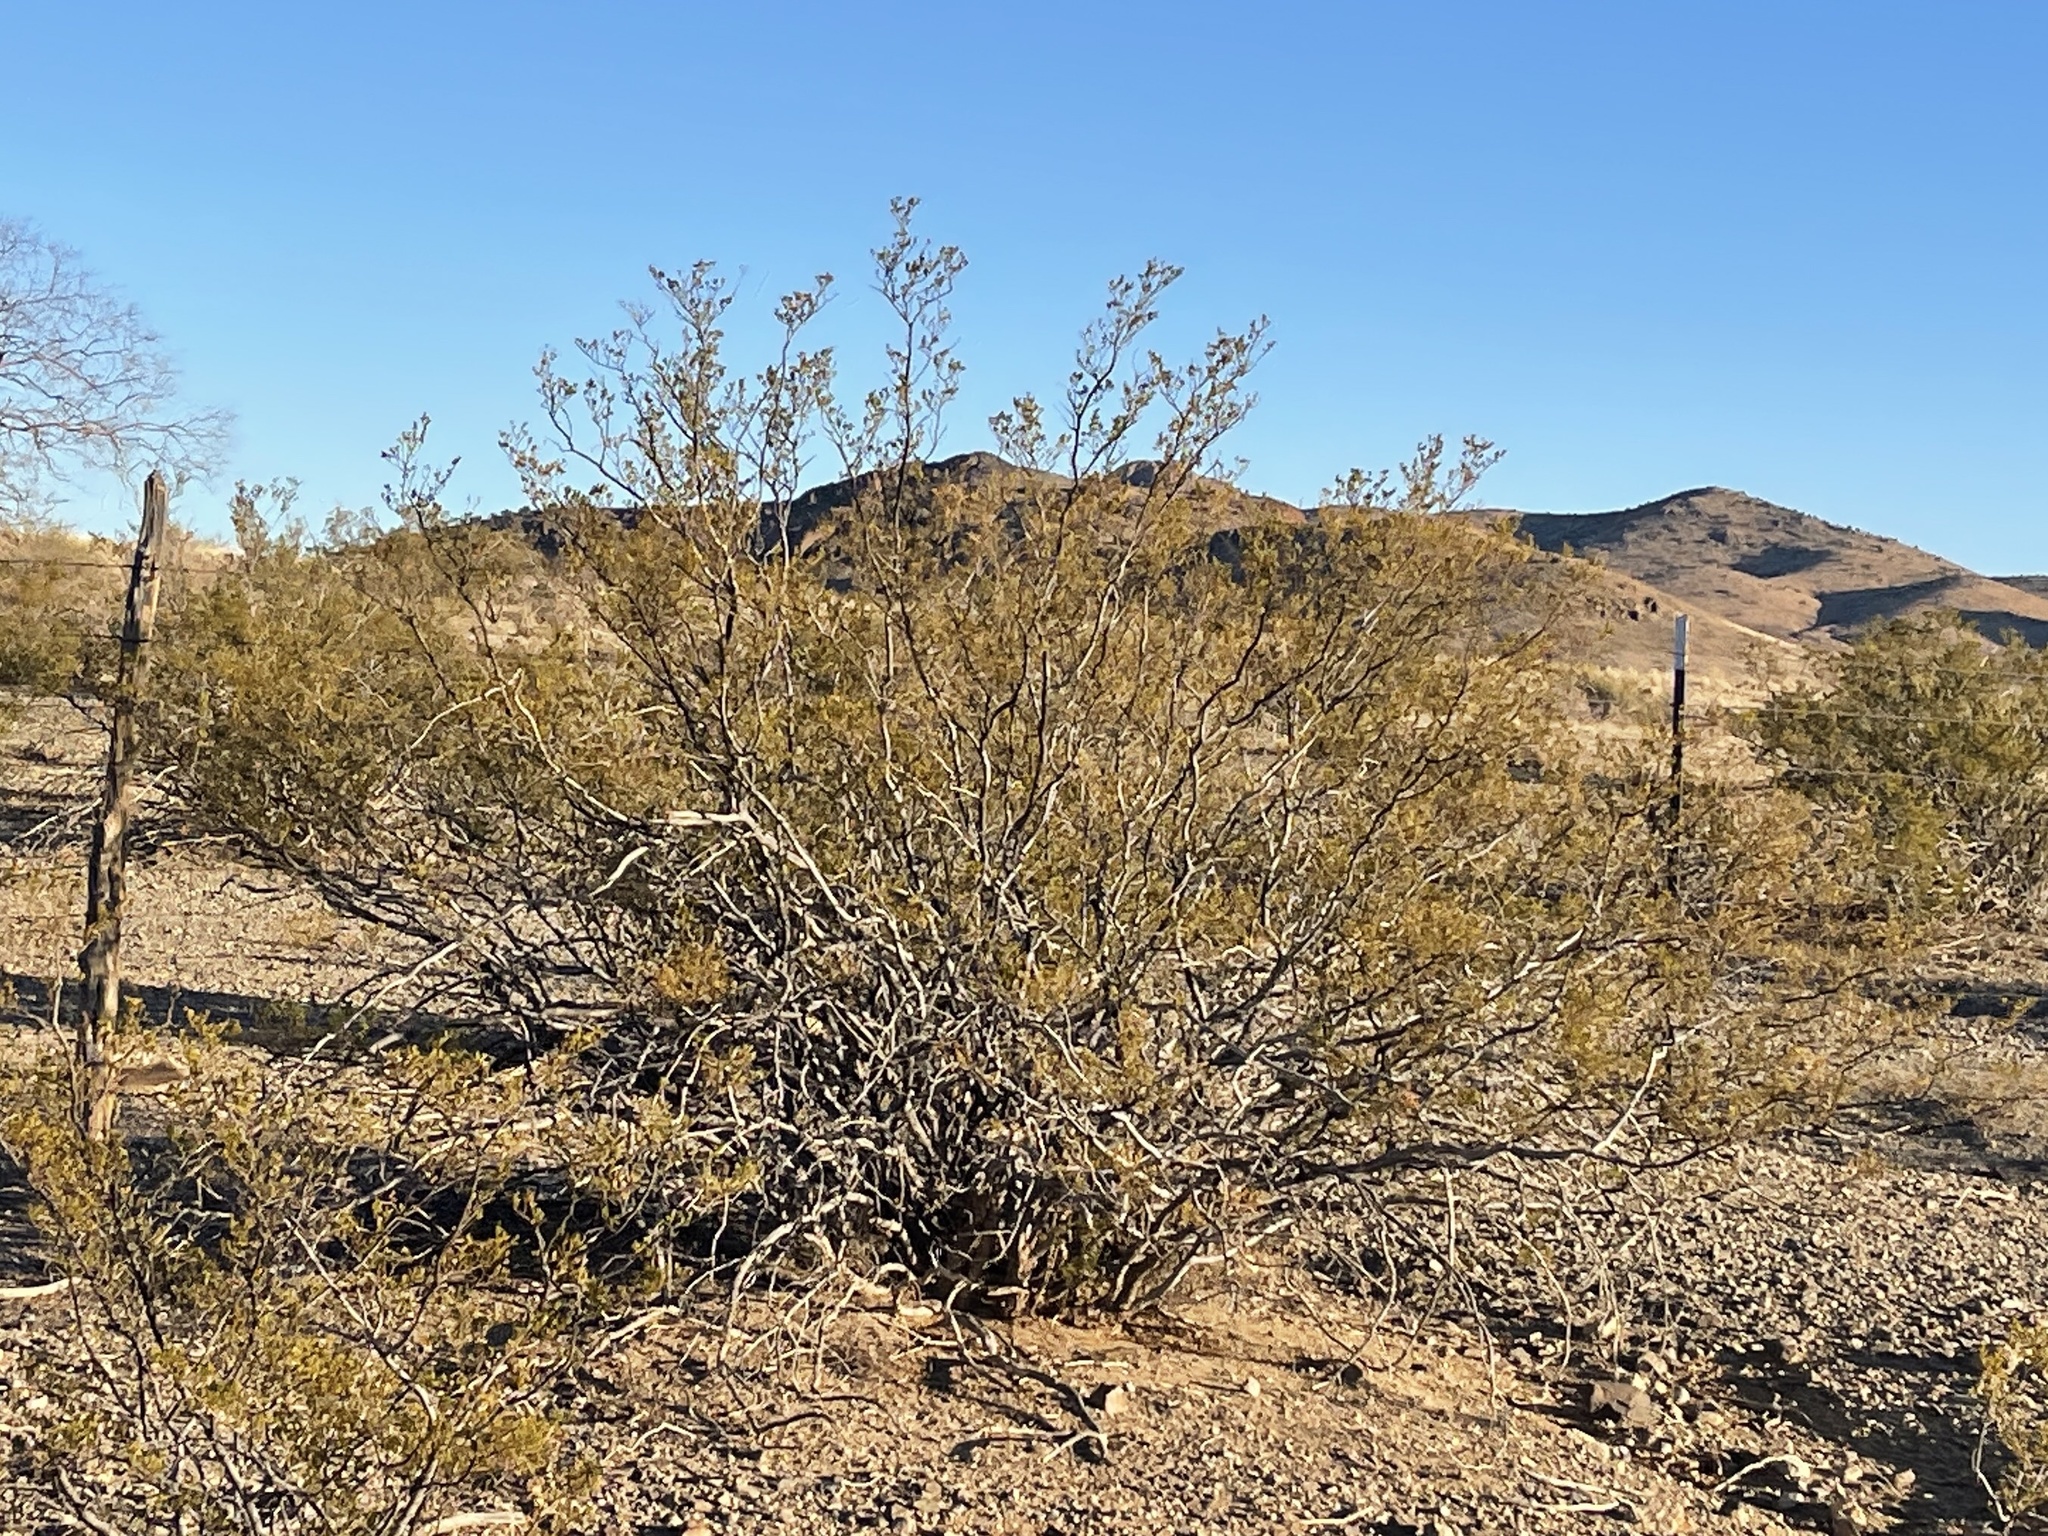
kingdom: Plantae
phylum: Tracheophyta
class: Magnoliopsida
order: Zygophyllales
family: Zygophyllaceae
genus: Larrea
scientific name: Larrea tridentata
